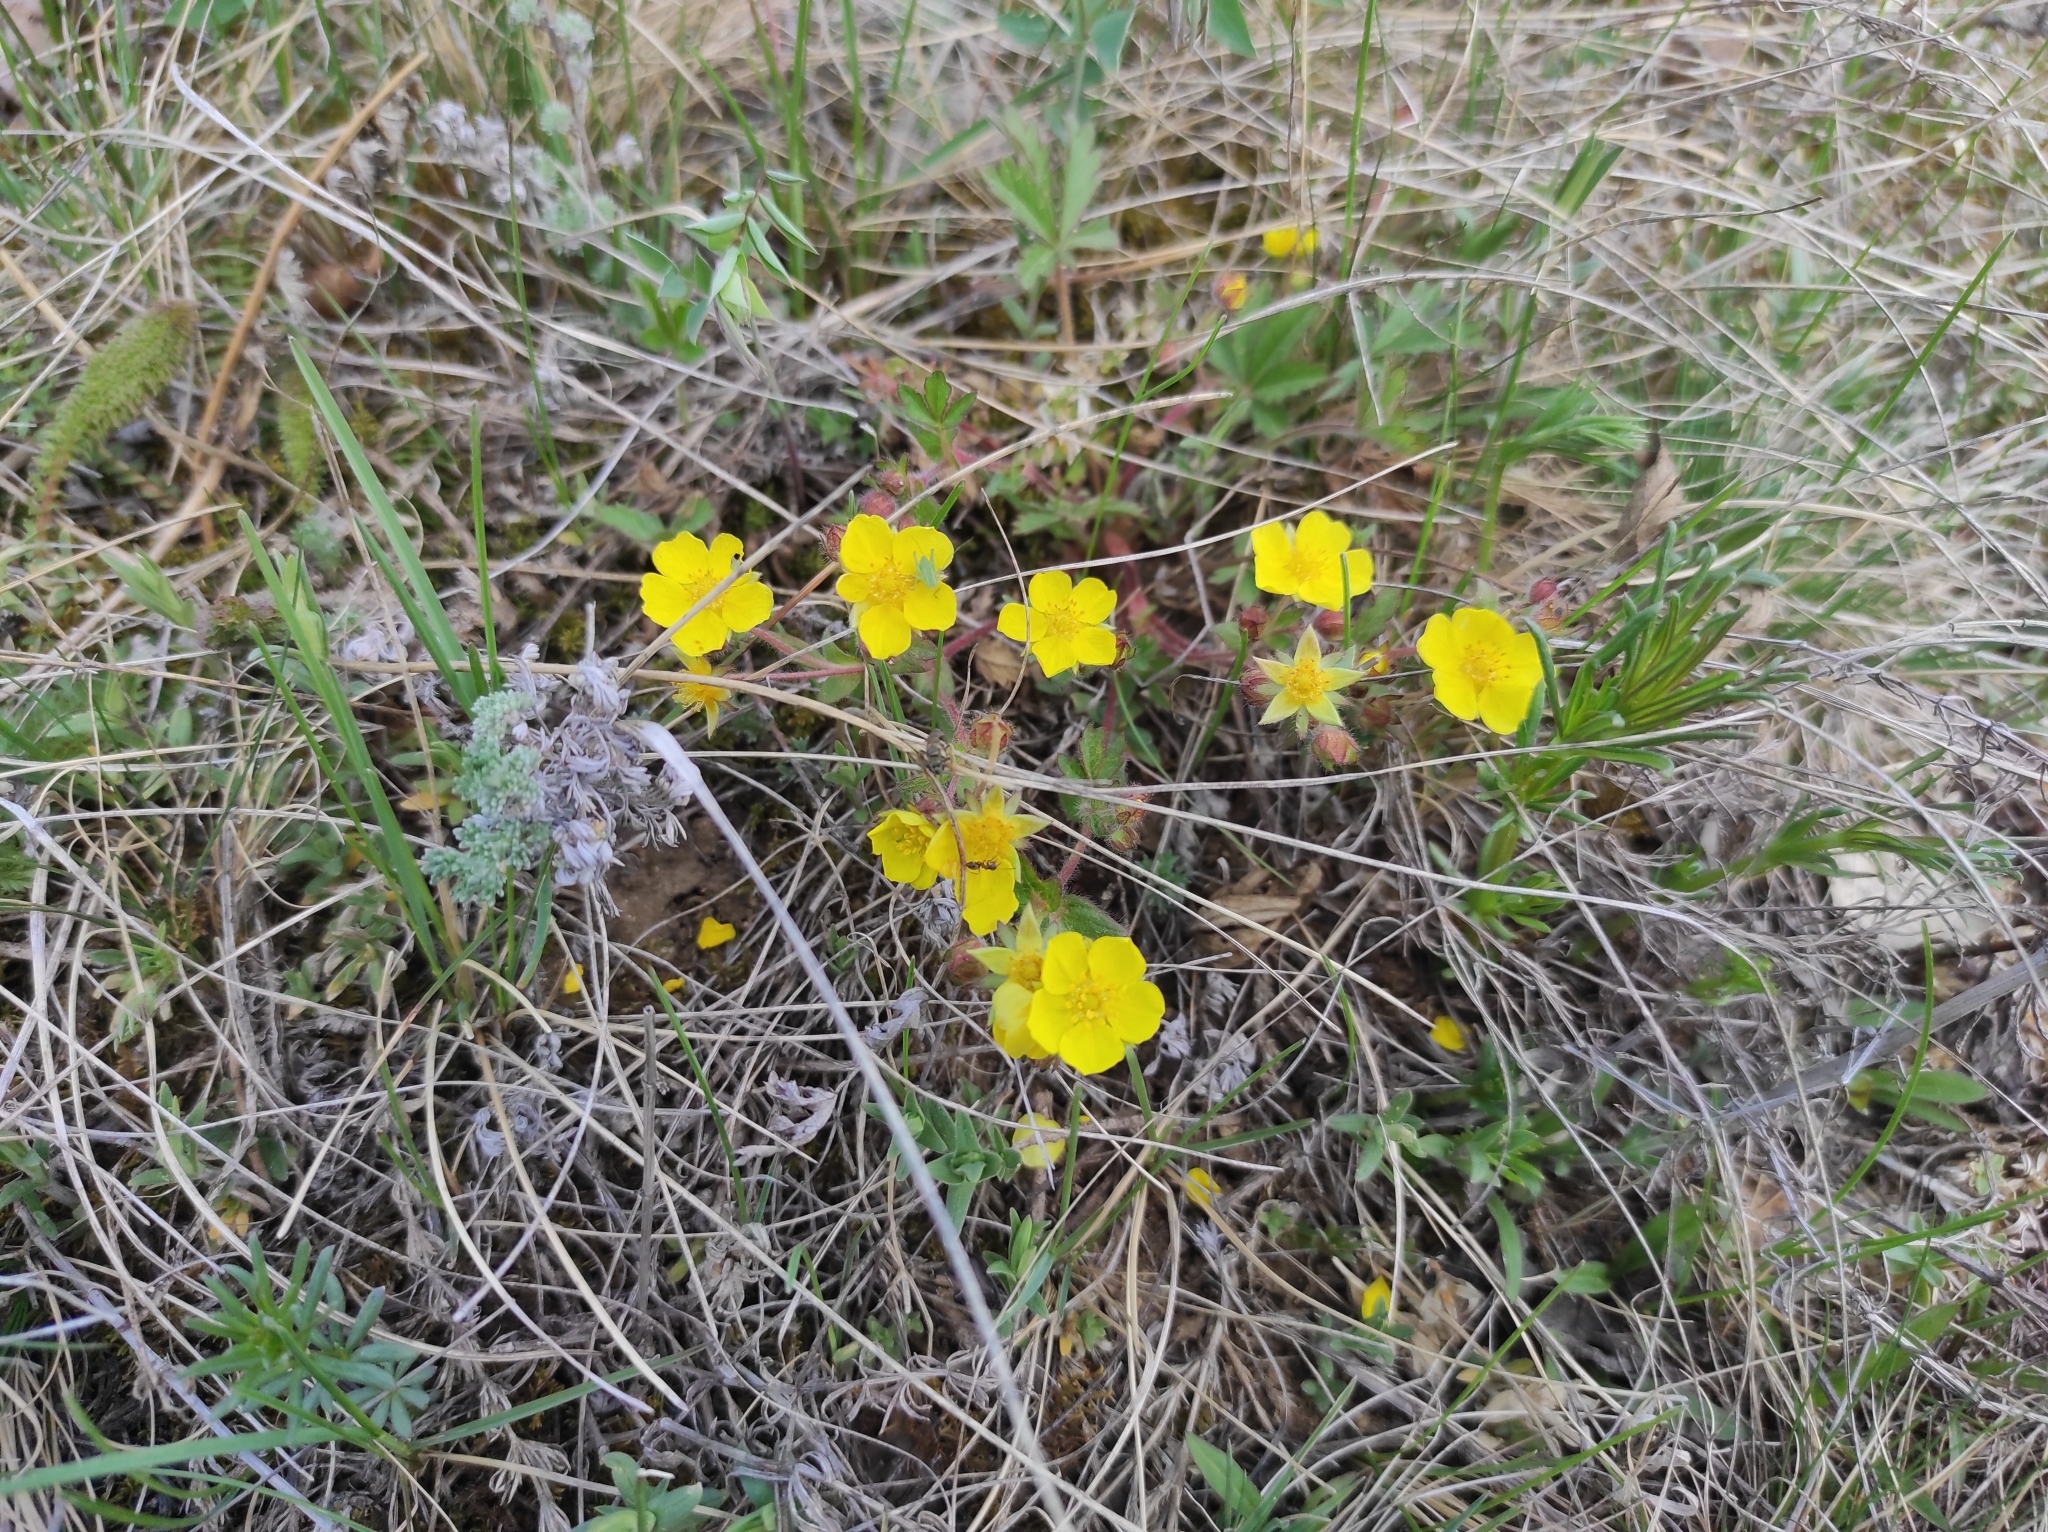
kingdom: Plantae
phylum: Tracheophyta
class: Magnoliopsida
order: Rosales
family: Rosaceae
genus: Potentilla
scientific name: Potentilla humifusa
